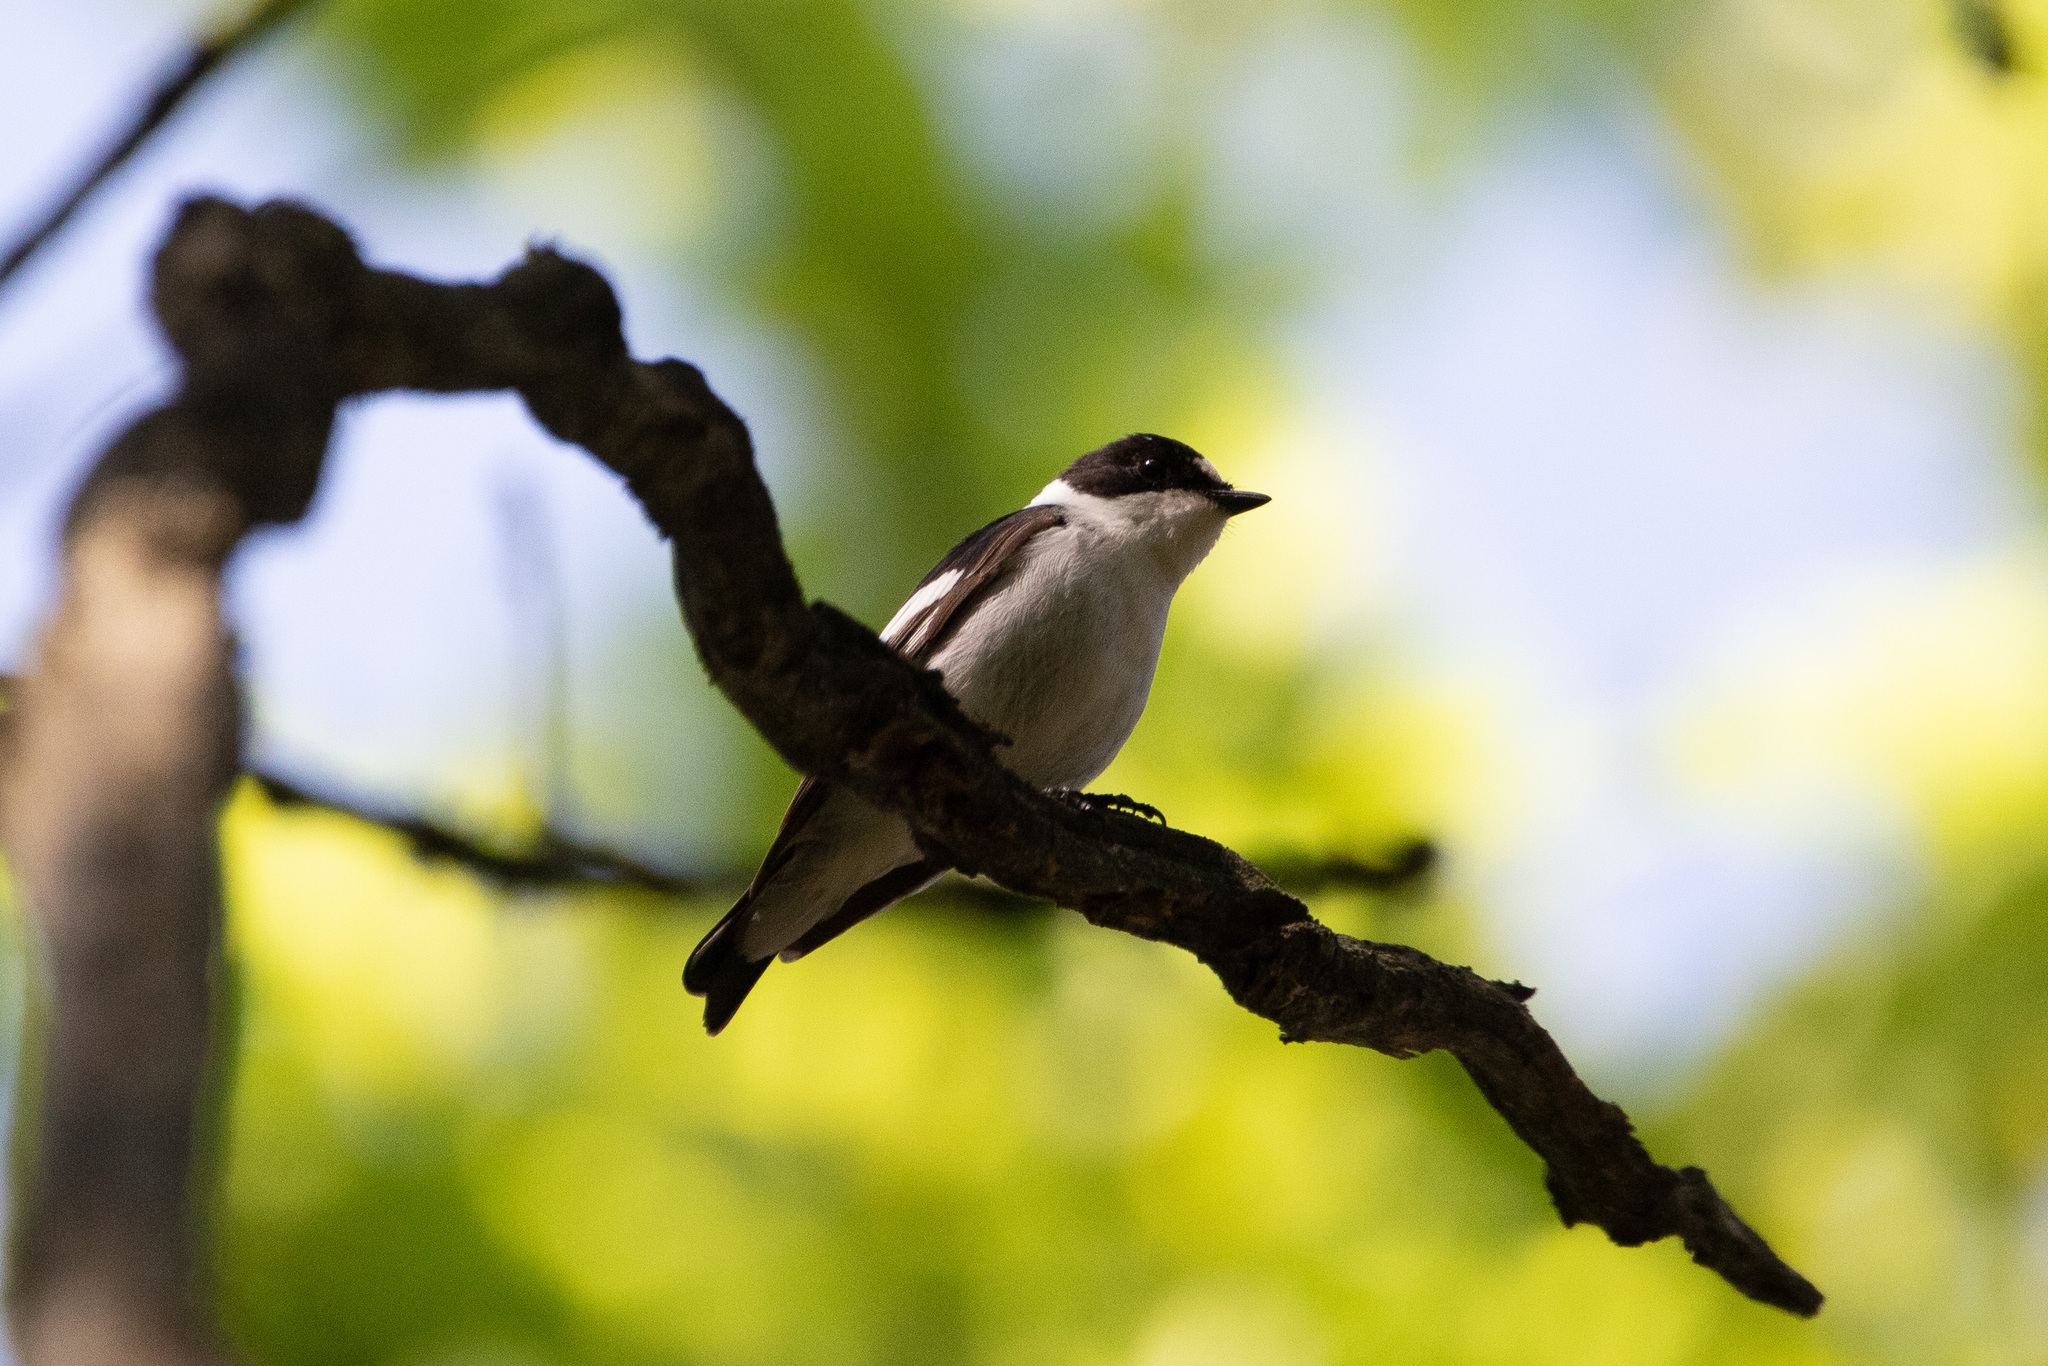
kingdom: Animalia
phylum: Chordata
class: Aves
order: Passeriformes
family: Muscicapidae
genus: Ficedula
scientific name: Ficedula albicollis
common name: Collared flycatcher
